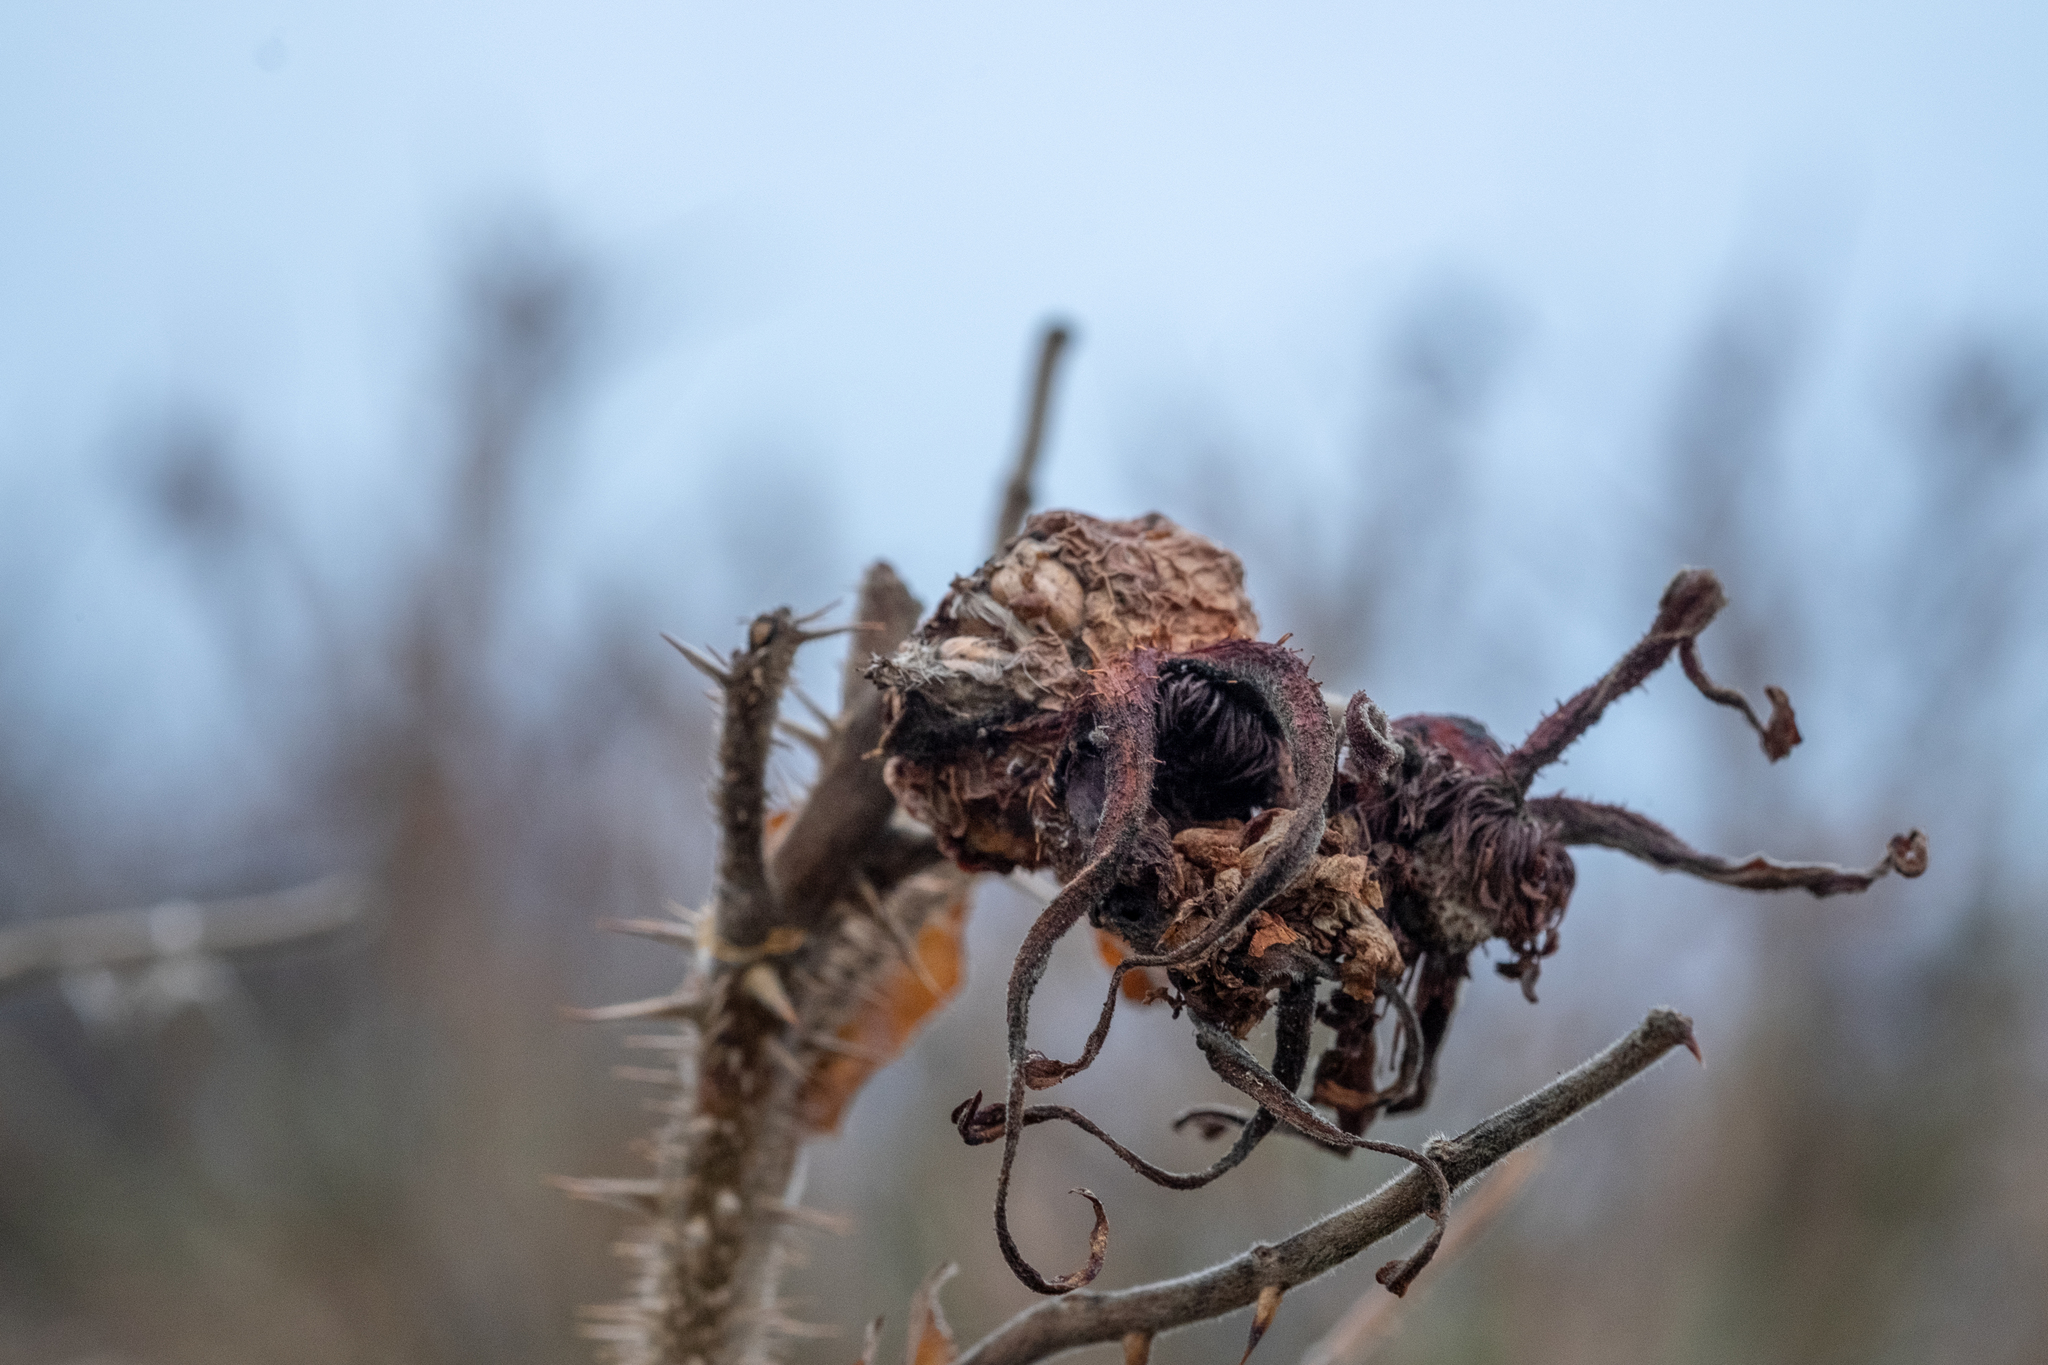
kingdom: Plantae
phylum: Tracheophyta
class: Magnoliopsida
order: Rosales
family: Rosaceae
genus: Rosa
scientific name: Rosa rugosa
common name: Japanese rose
